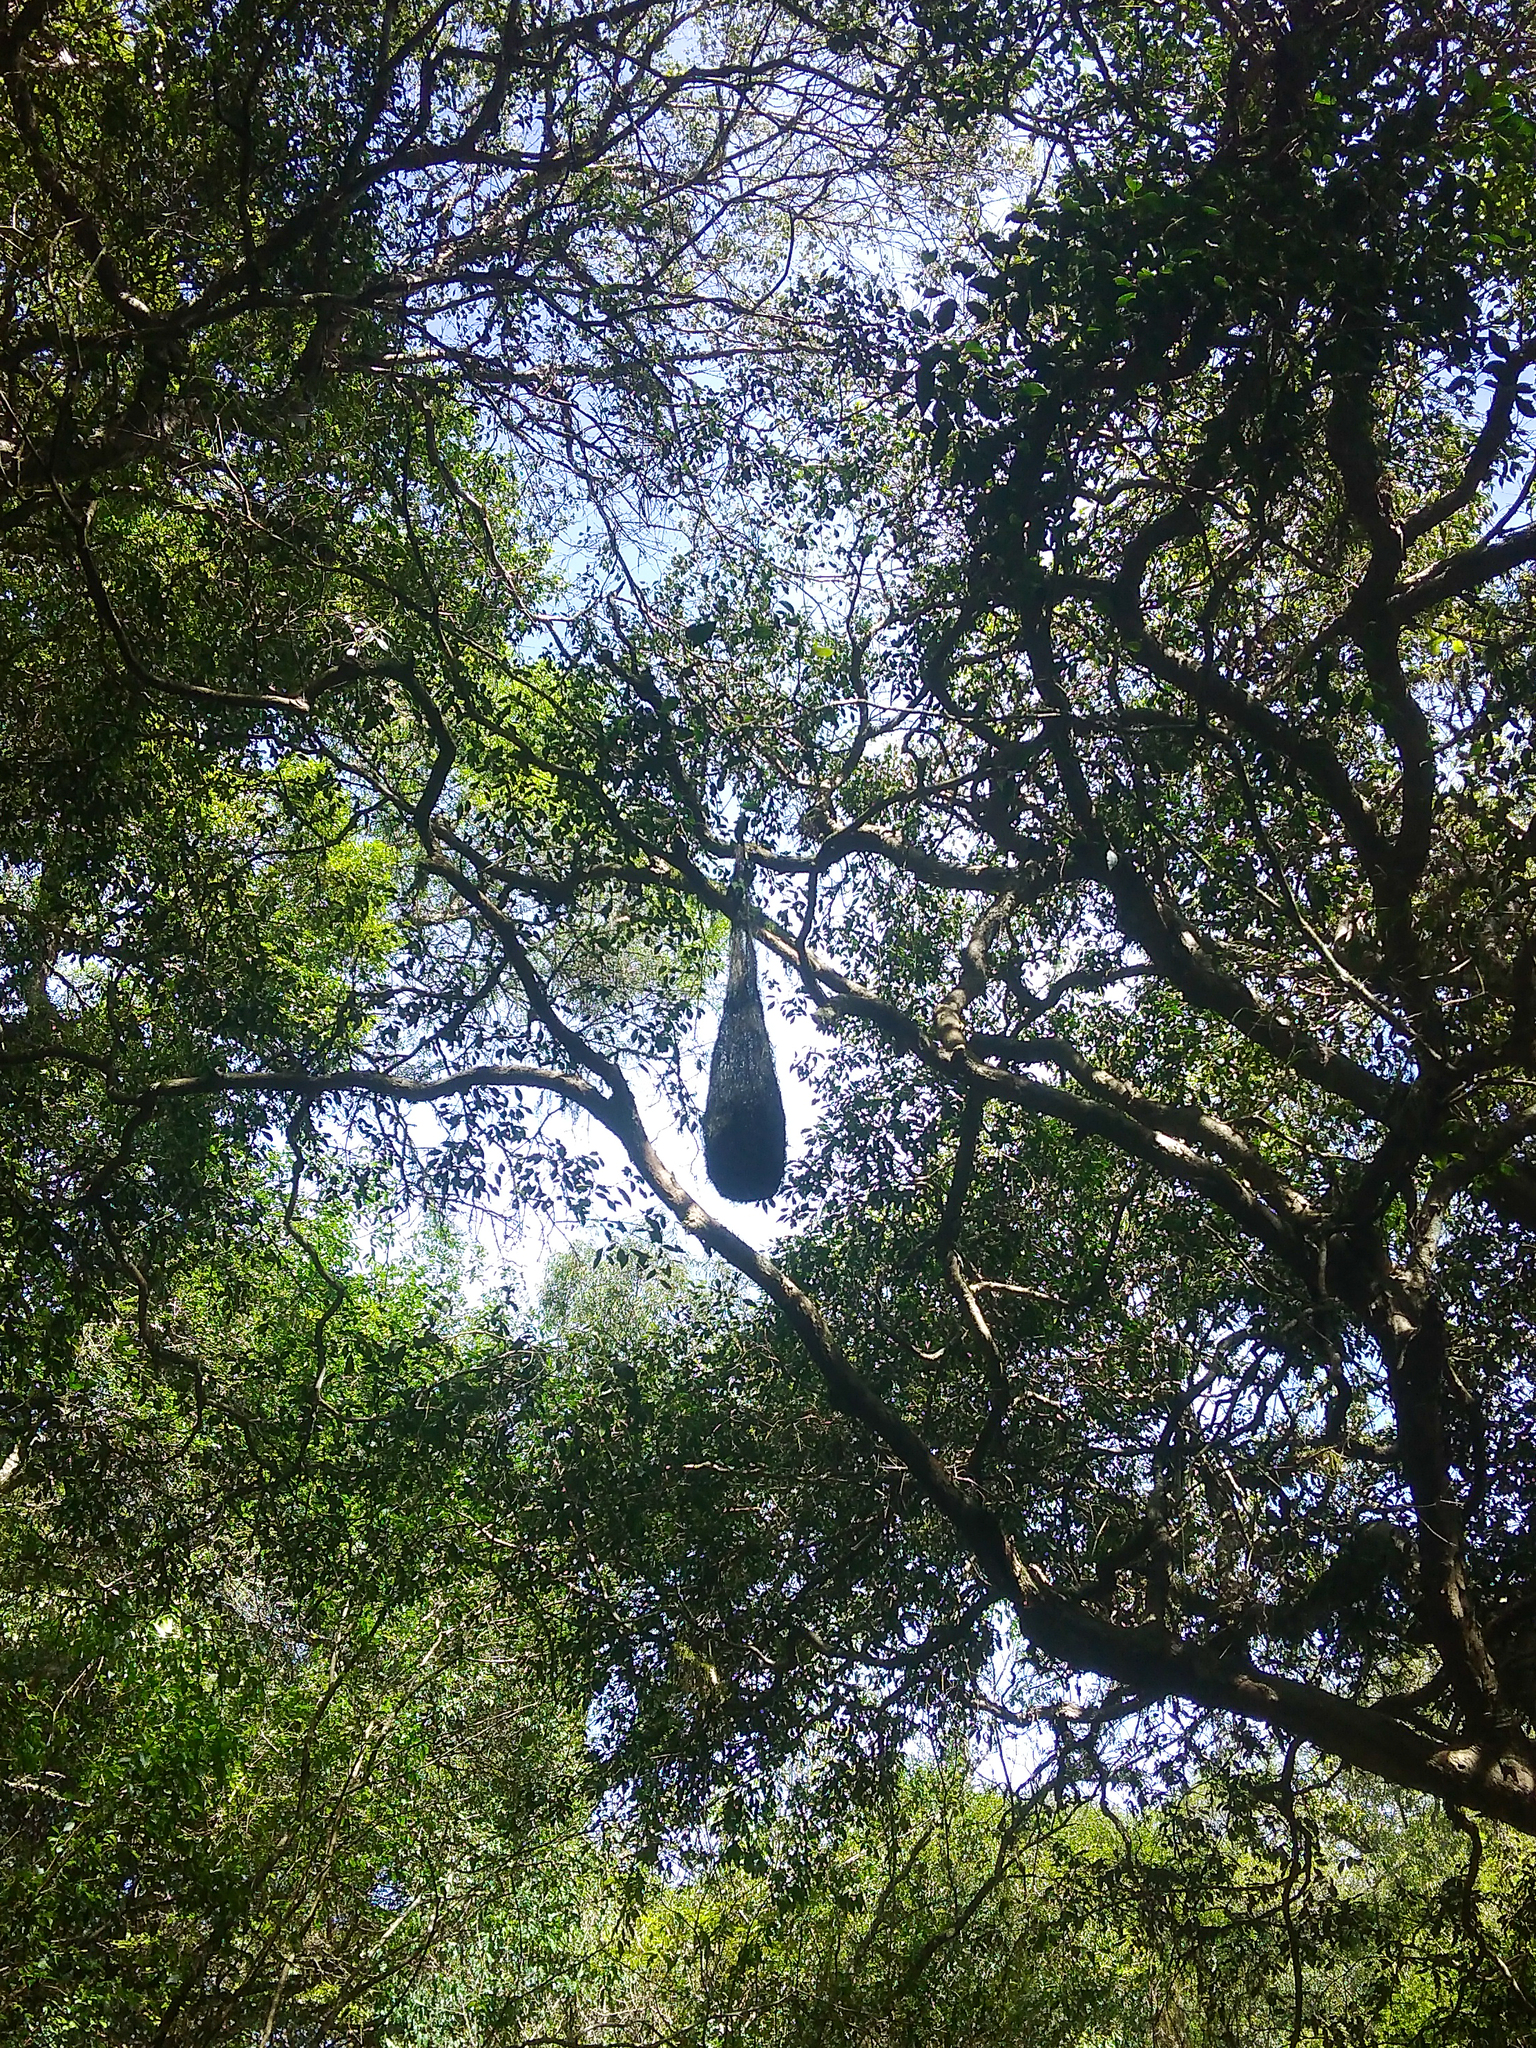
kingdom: Animalia
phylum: Chordata
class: Aves
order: Passeriformes
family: Icteridae
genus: Cacicus
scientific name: Cacicus chrysopterus
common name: Golden-winged cacique
